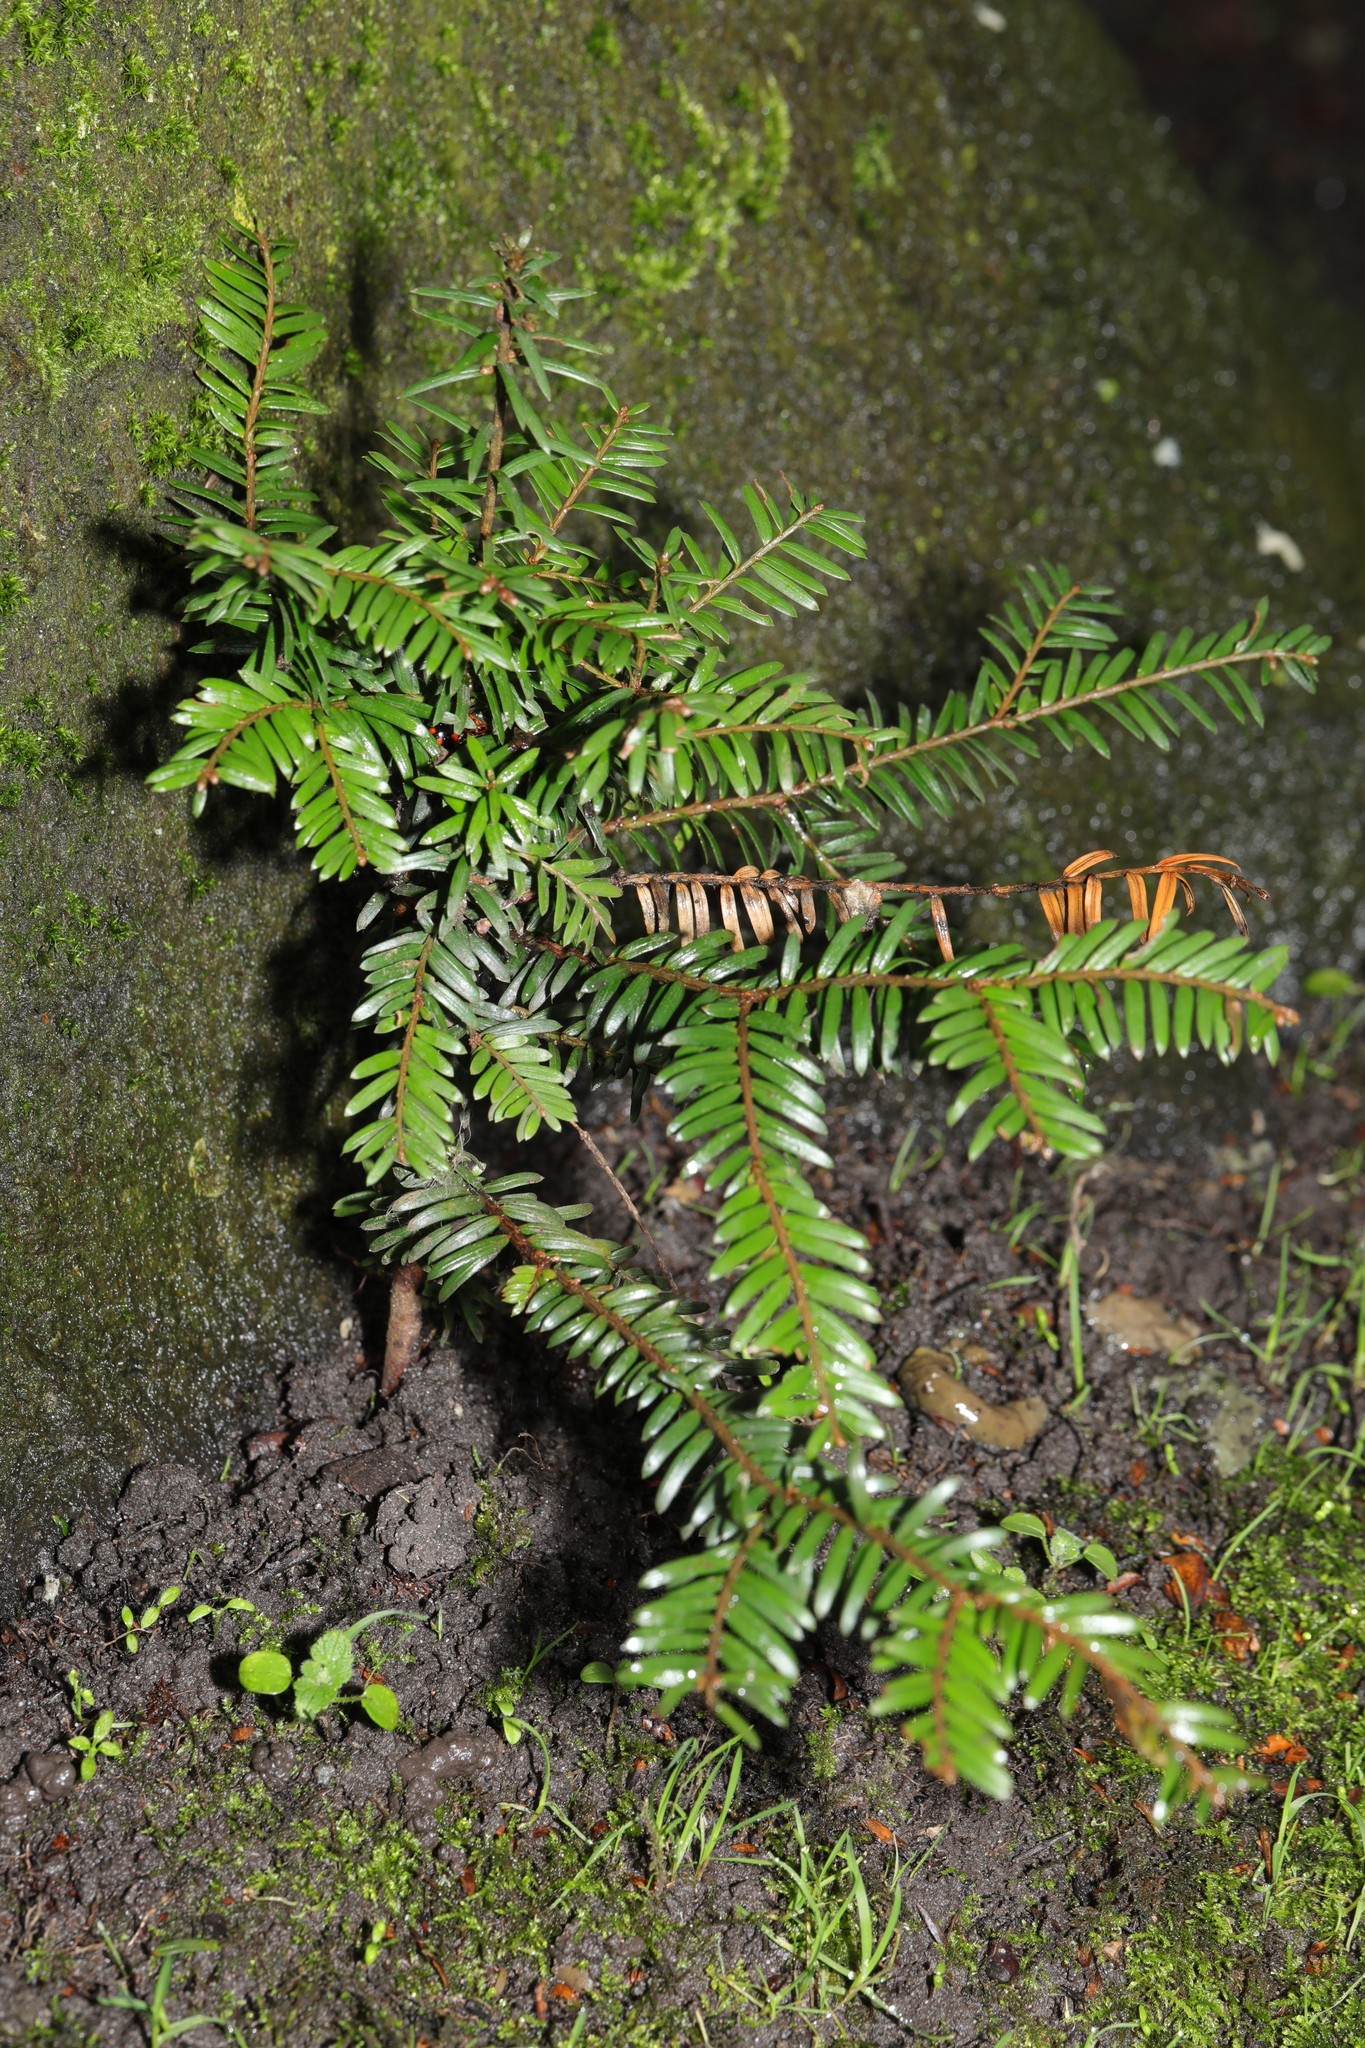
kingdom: Plantae
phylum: Tracheophyta
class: Pinopsida
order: Pinales
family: Taxaceae
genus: Taxus
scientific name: Taxus baccata
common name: Yew
